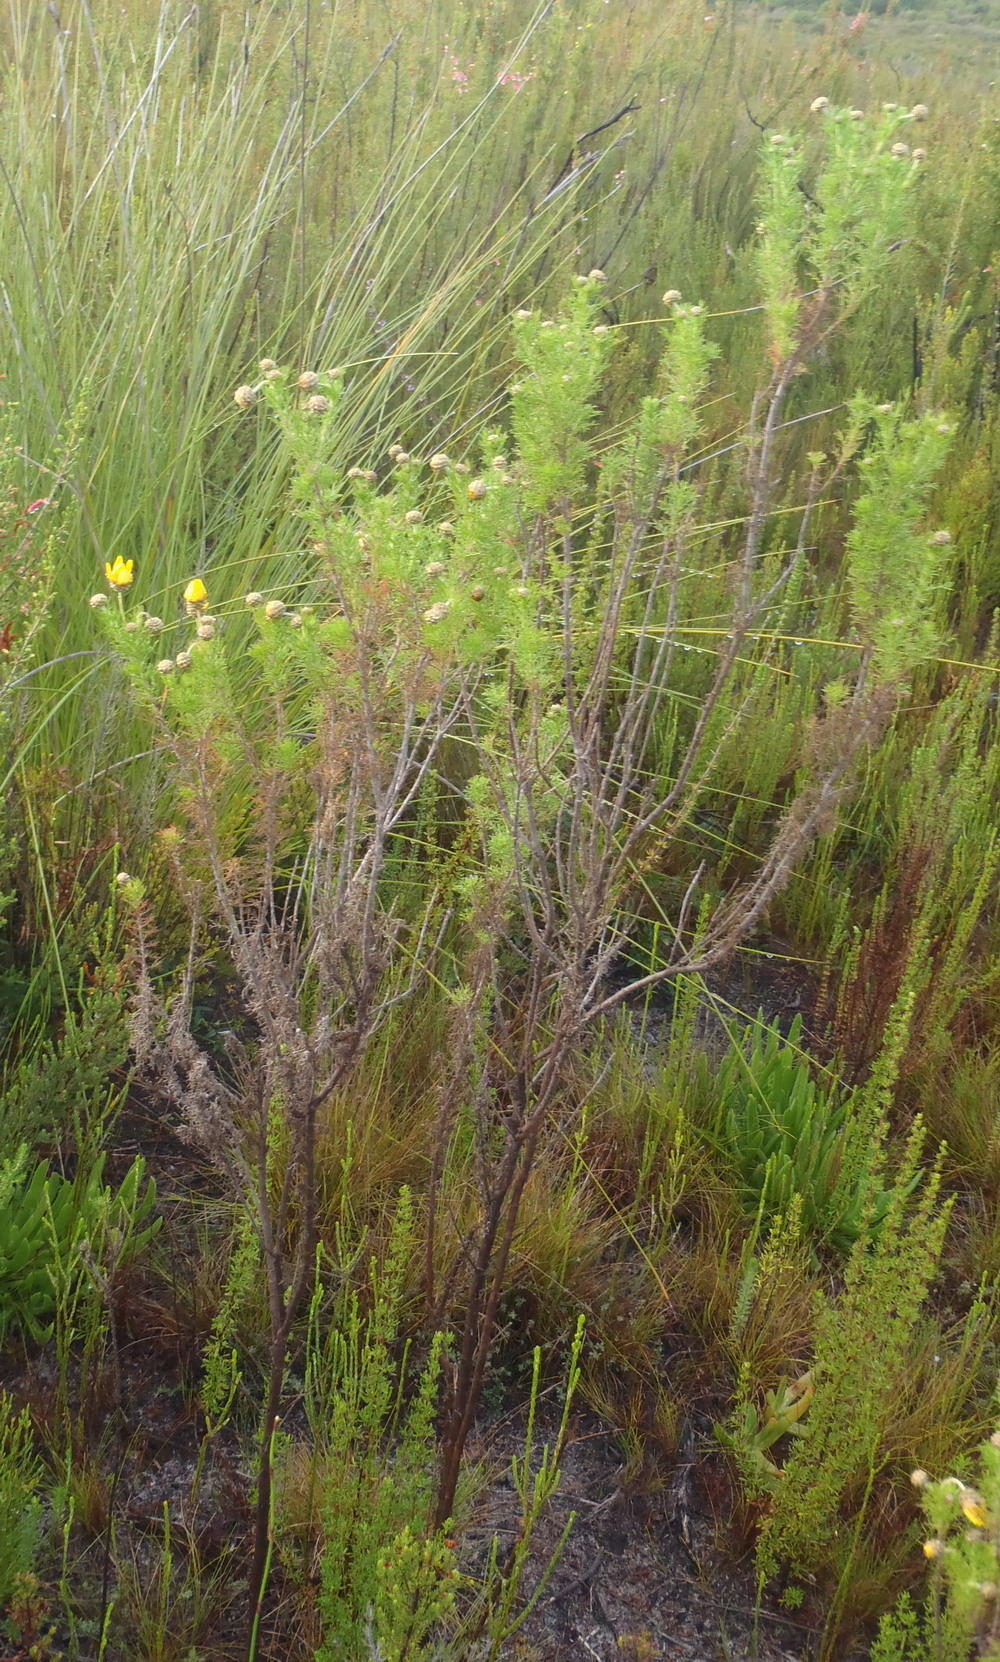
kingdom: Plantae
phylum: Tracheophyta
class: Magnoliopsida
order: Asterales
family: Asteraceae
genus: Ursinia
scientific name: Ursinia scariosa
